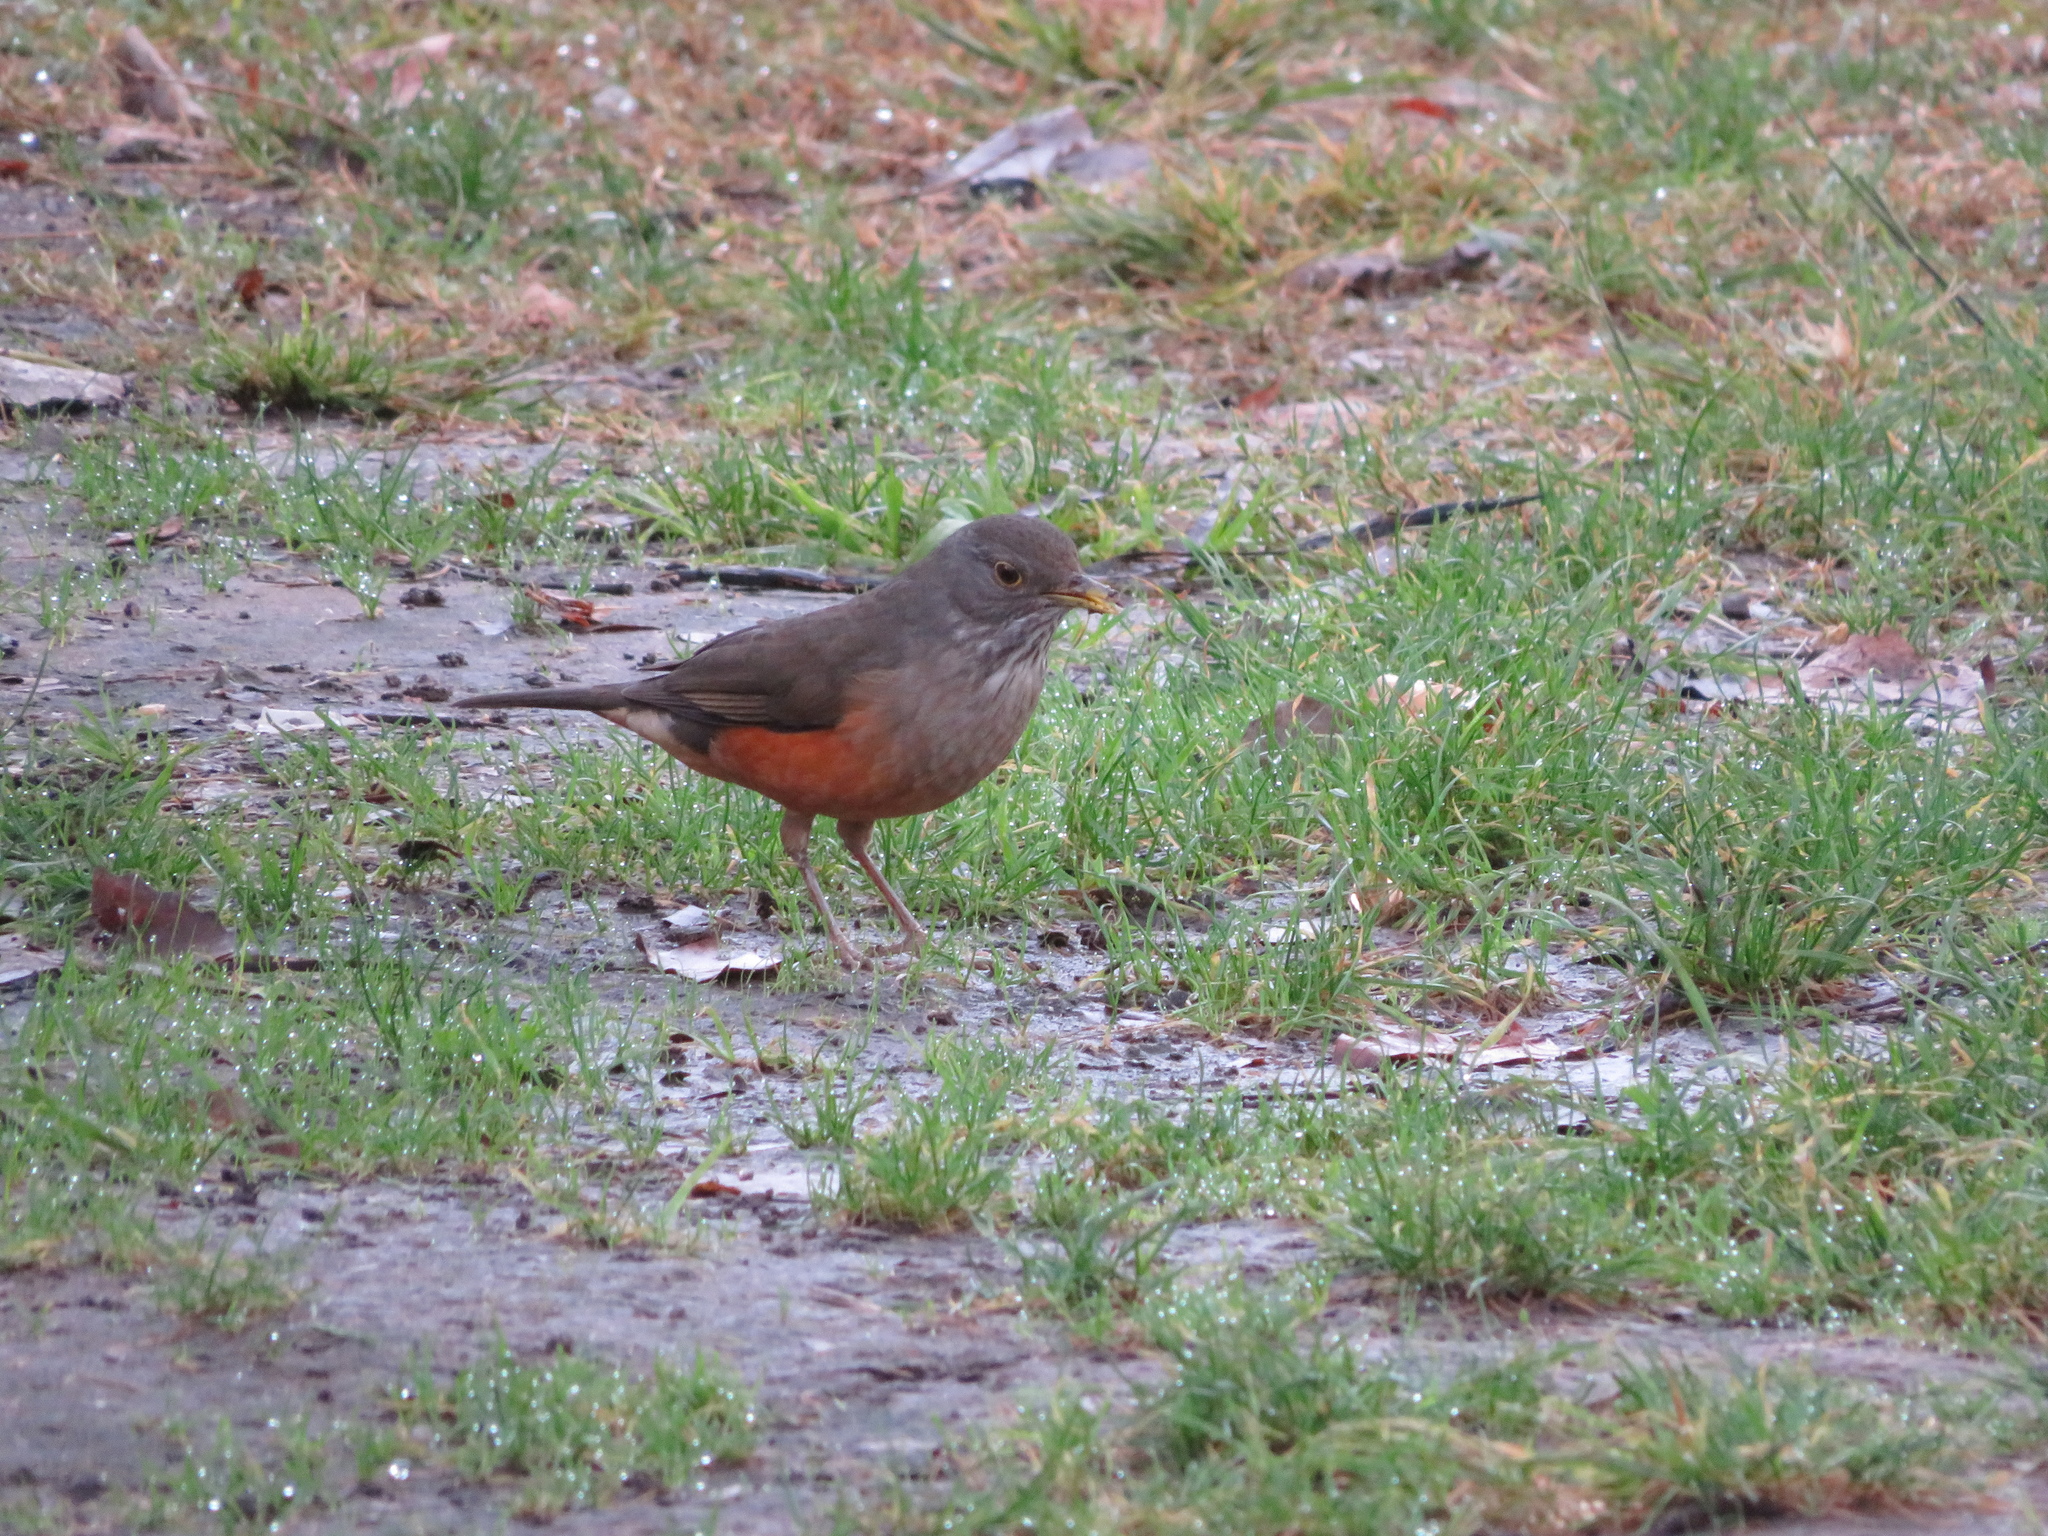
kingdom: Animalia
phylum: Chordata
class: Aves
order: Passeriformes
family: Turdidae
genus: Turdus
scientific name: Turdus rufiventris
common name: Rufous-bellied thrush
